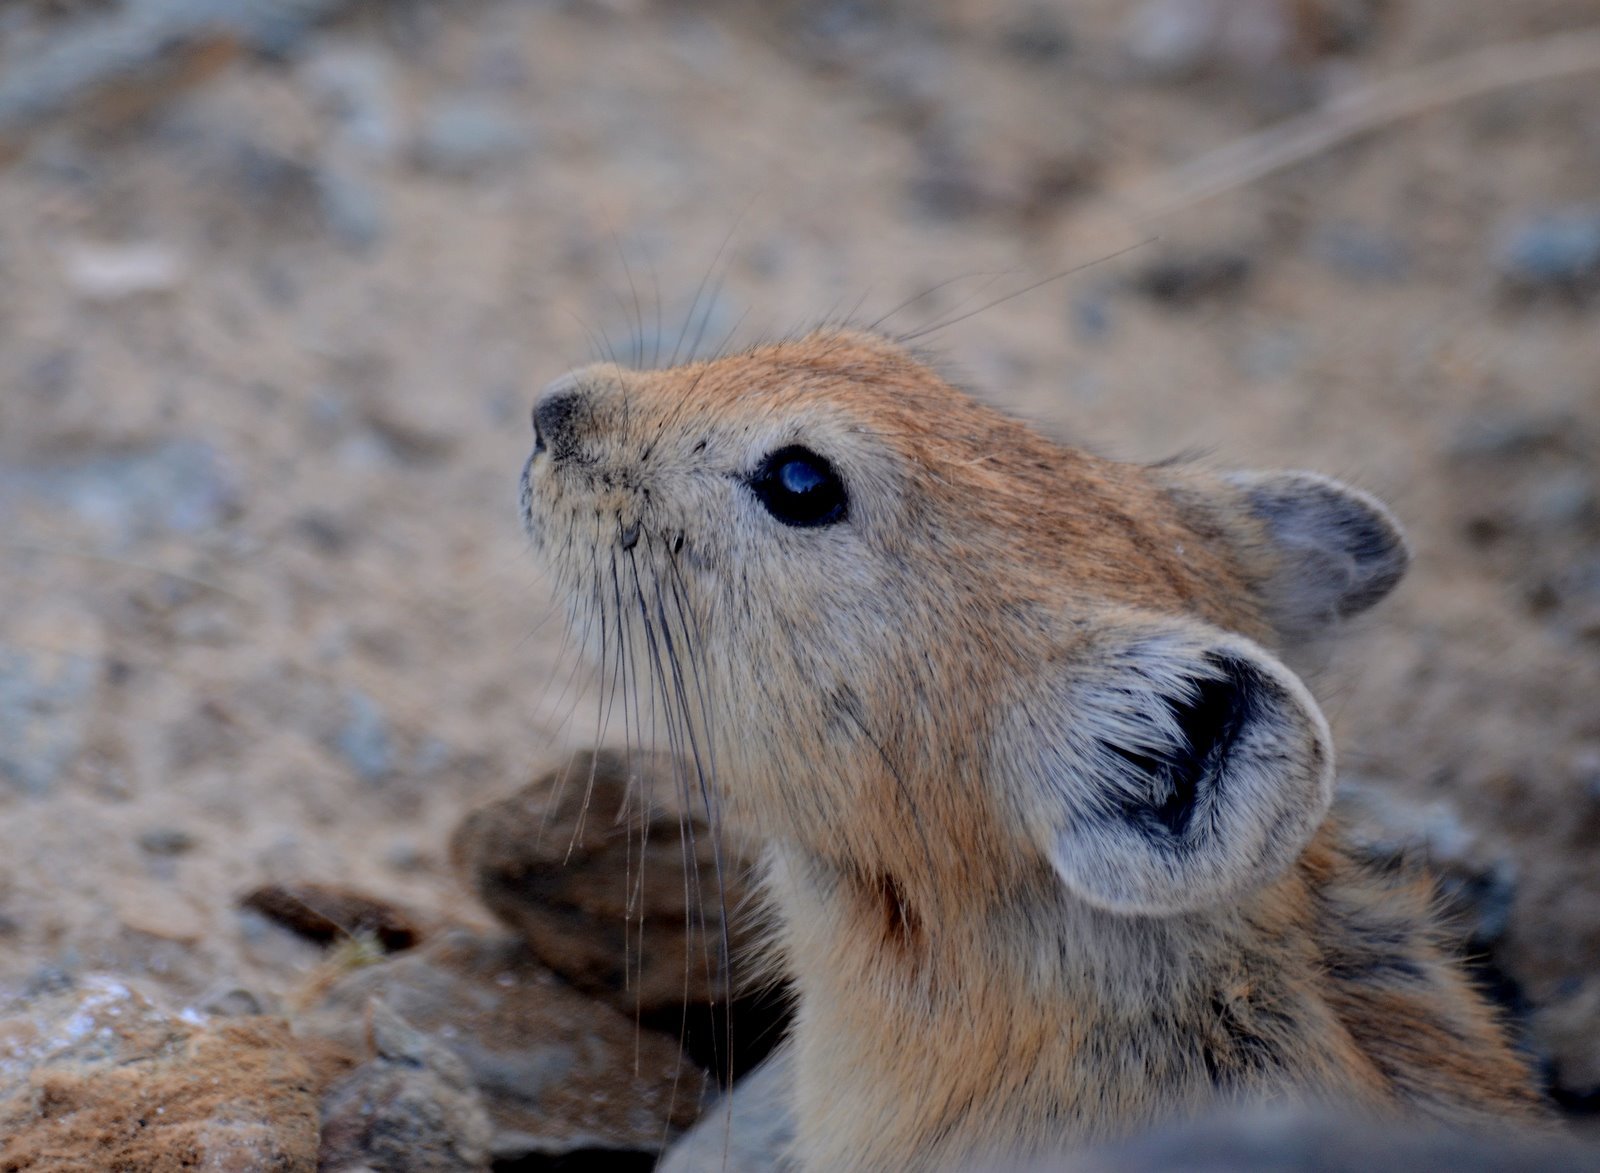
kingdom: Animalia
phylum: Chordata
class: Mammalia
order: Lagomorpha
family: Ochotonidae
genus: Ochotona
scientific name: Ochotona alpina
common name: Alpine pika
